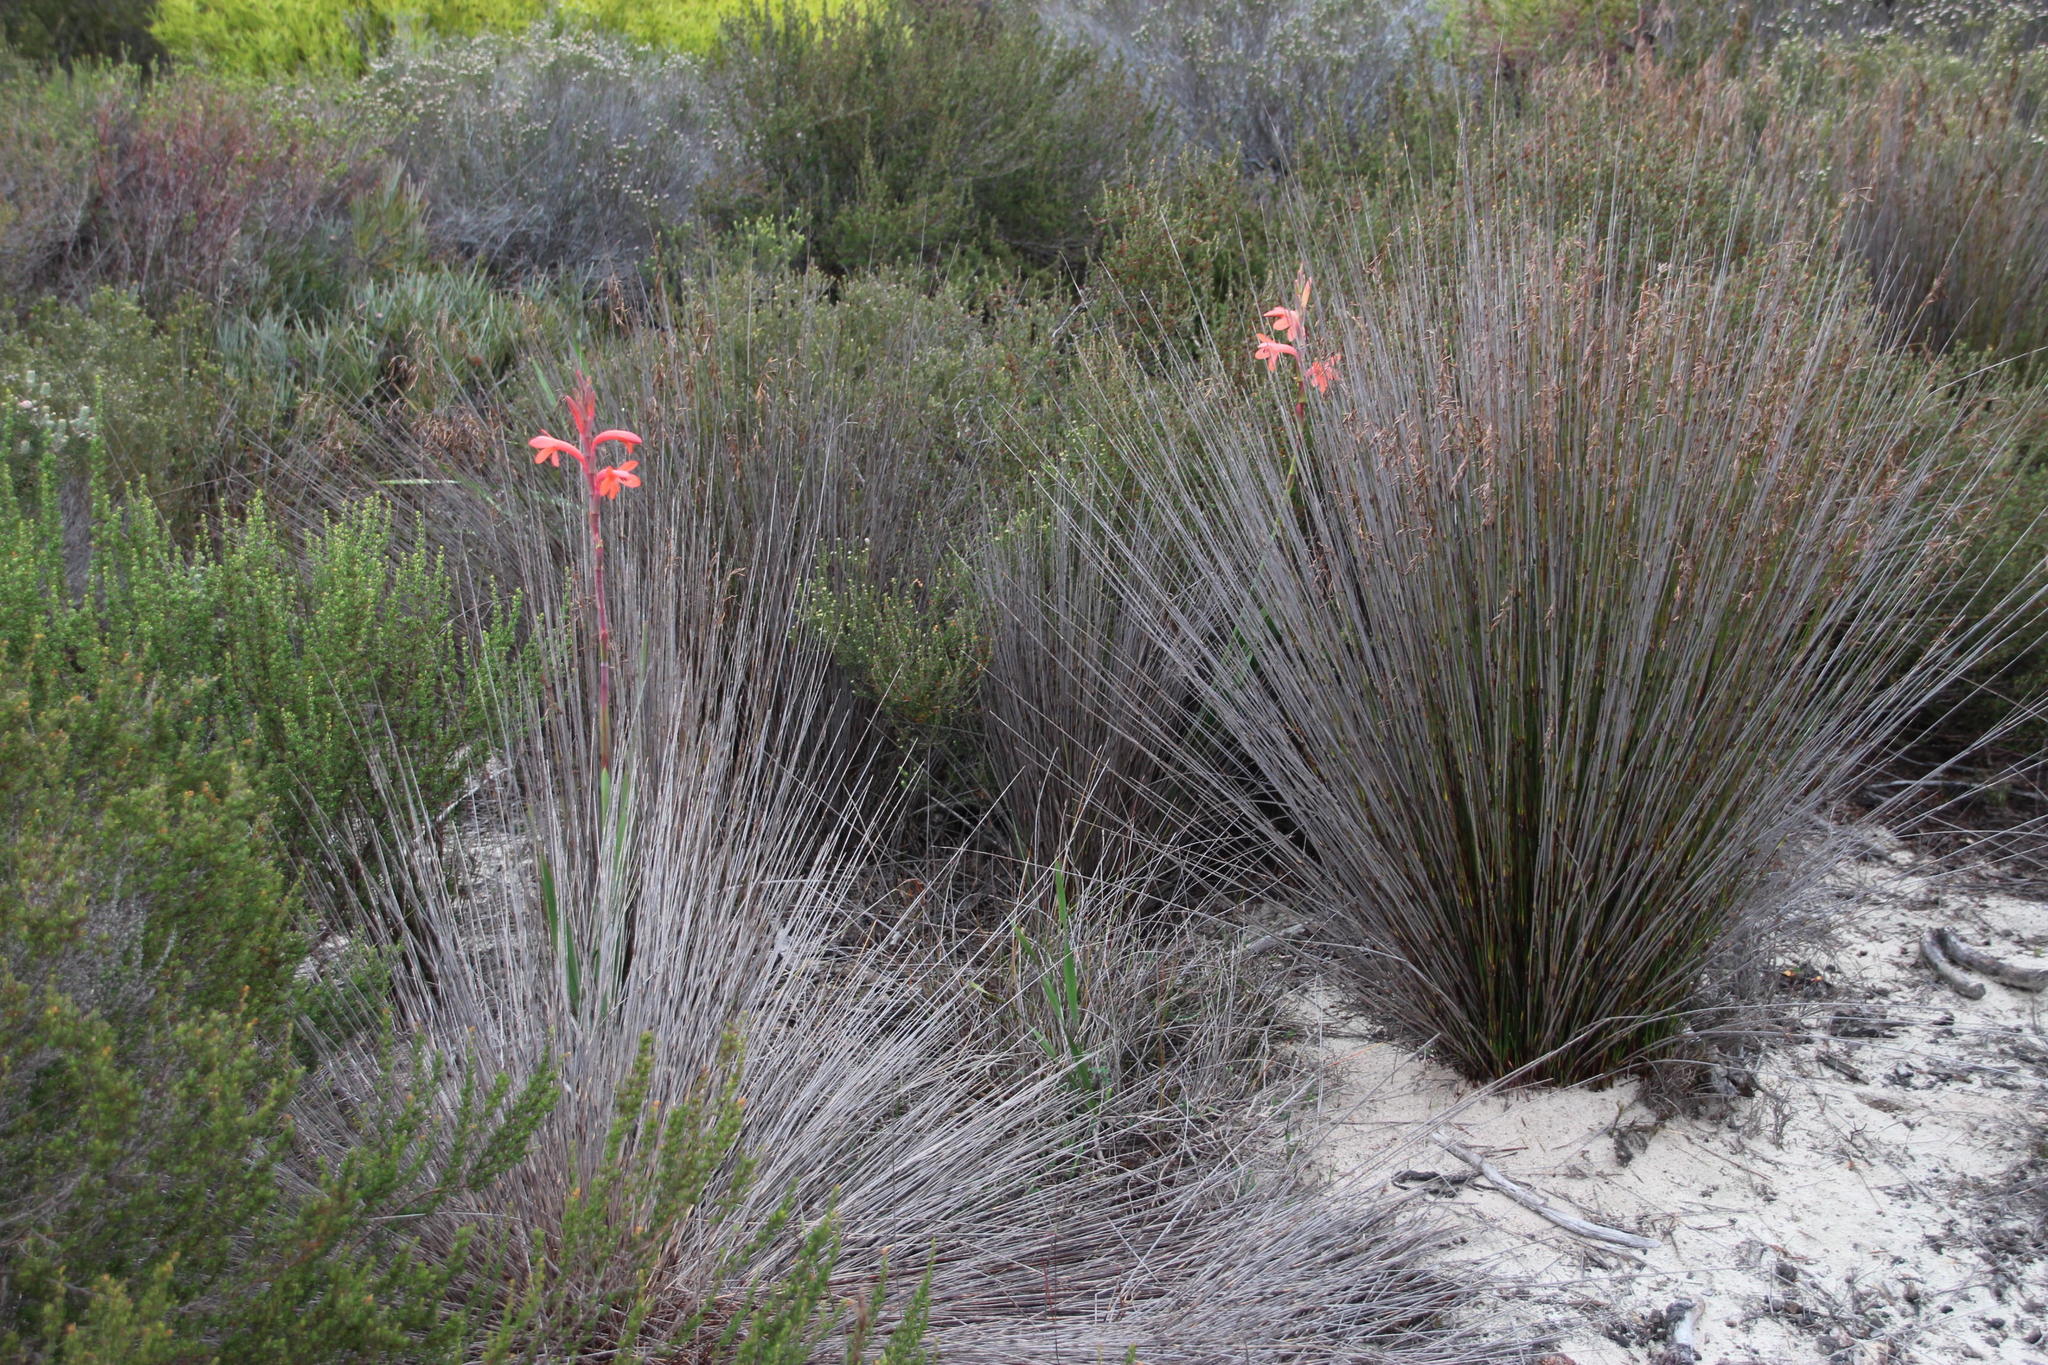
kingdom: Plantae
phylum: Tracheophyta
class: Liliopsida
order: Asparagales
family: Iridaceae
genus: Watsonia
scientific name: Watsonia meriana
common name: Bulbil bugle-lily
